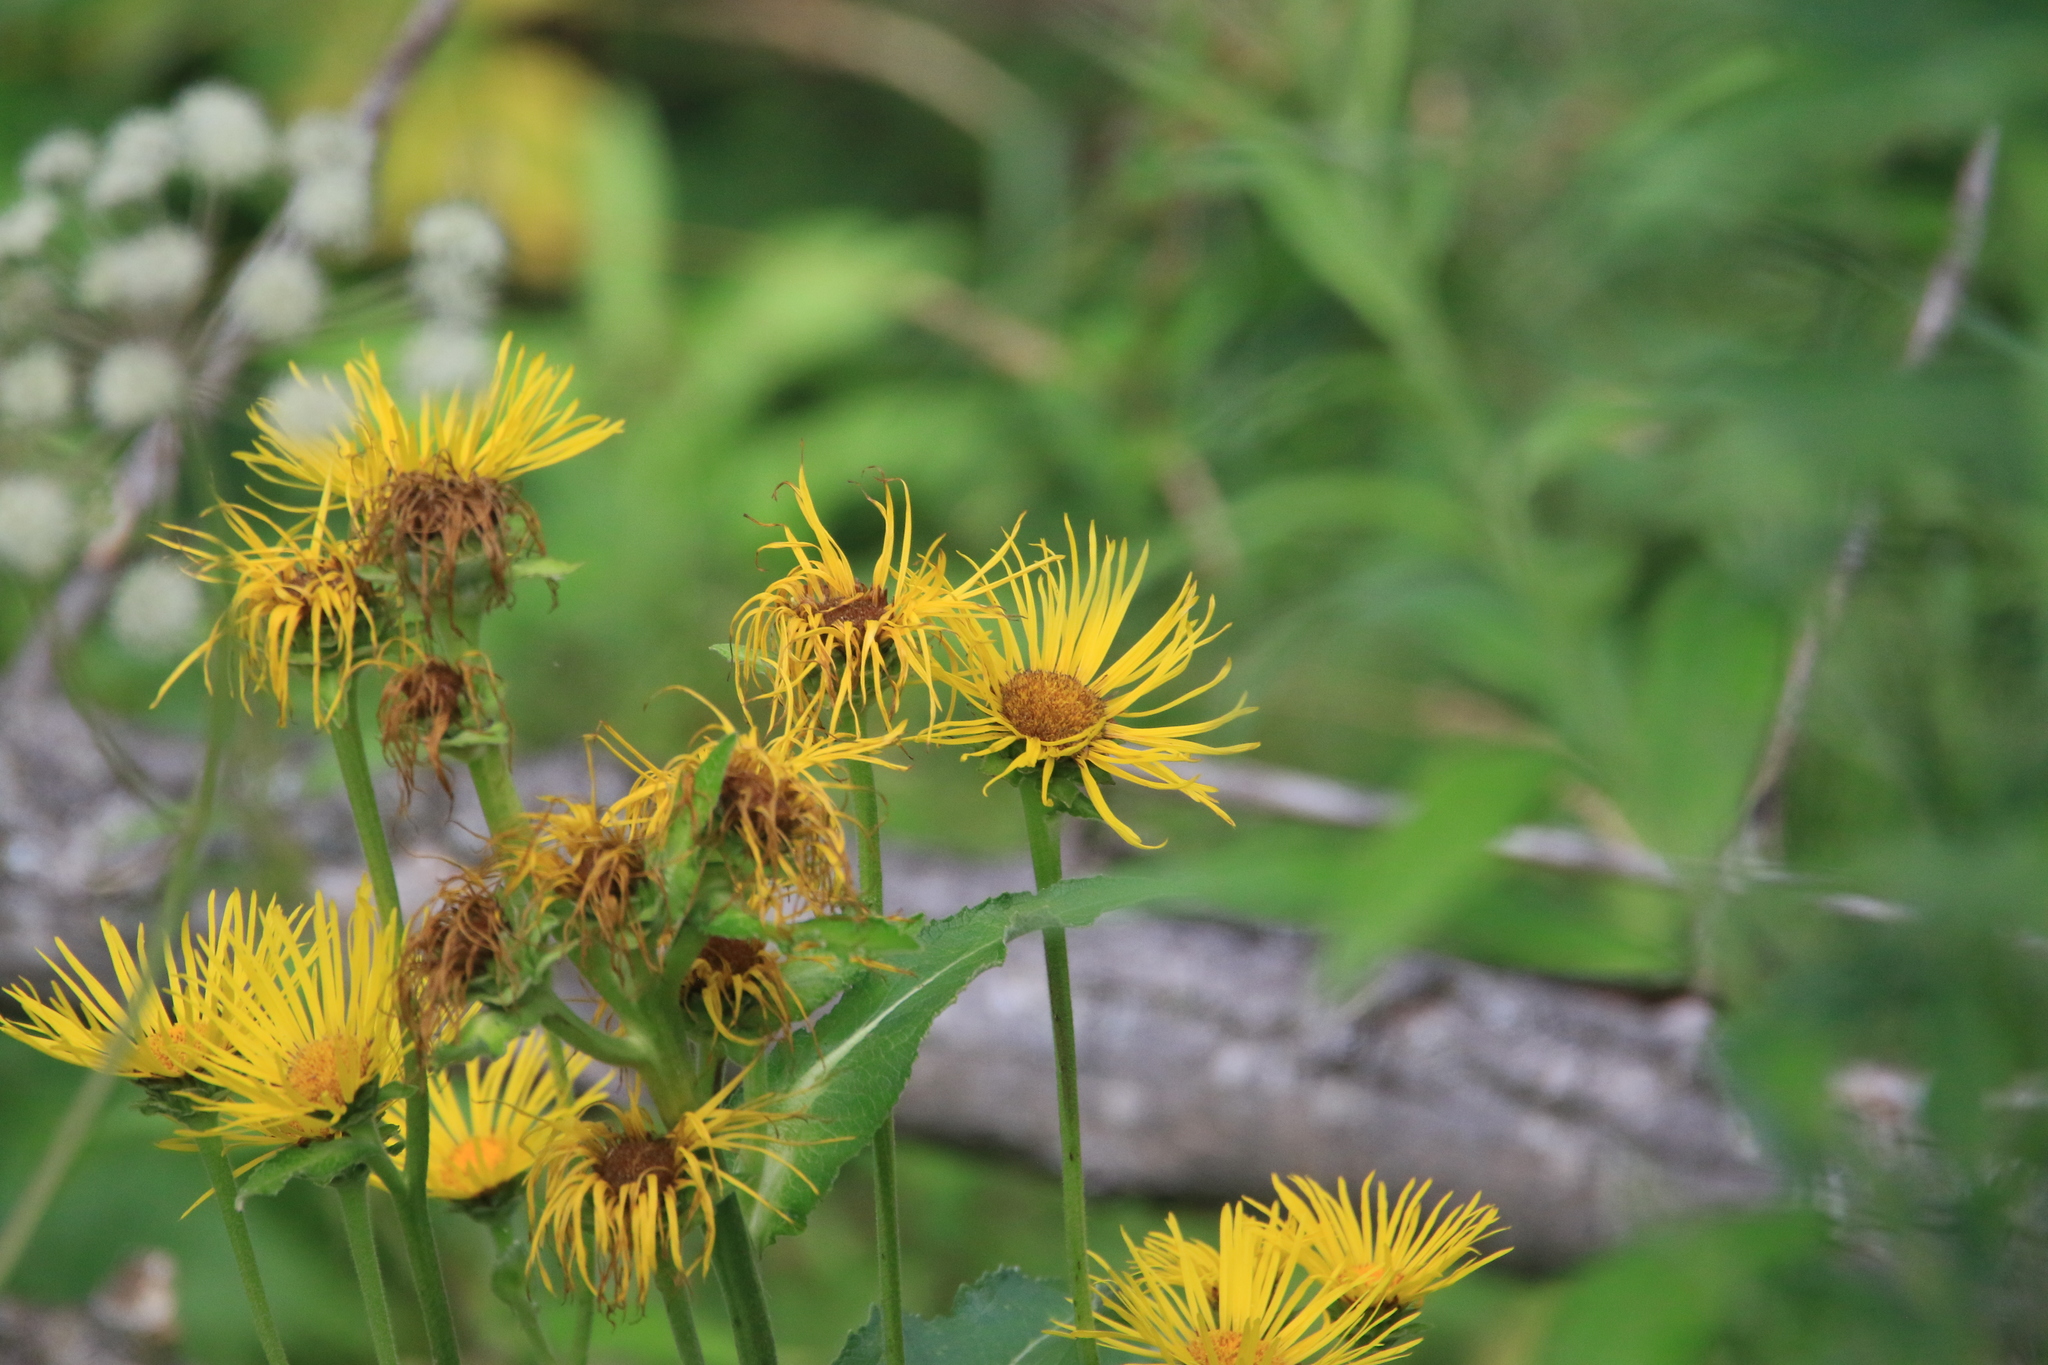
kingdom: Plantae
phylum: Tracheophyta
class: Magnoliopsida
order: Asterales
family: Asteraceae
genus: Inula
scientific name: Inula helenium
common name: Elecampane
